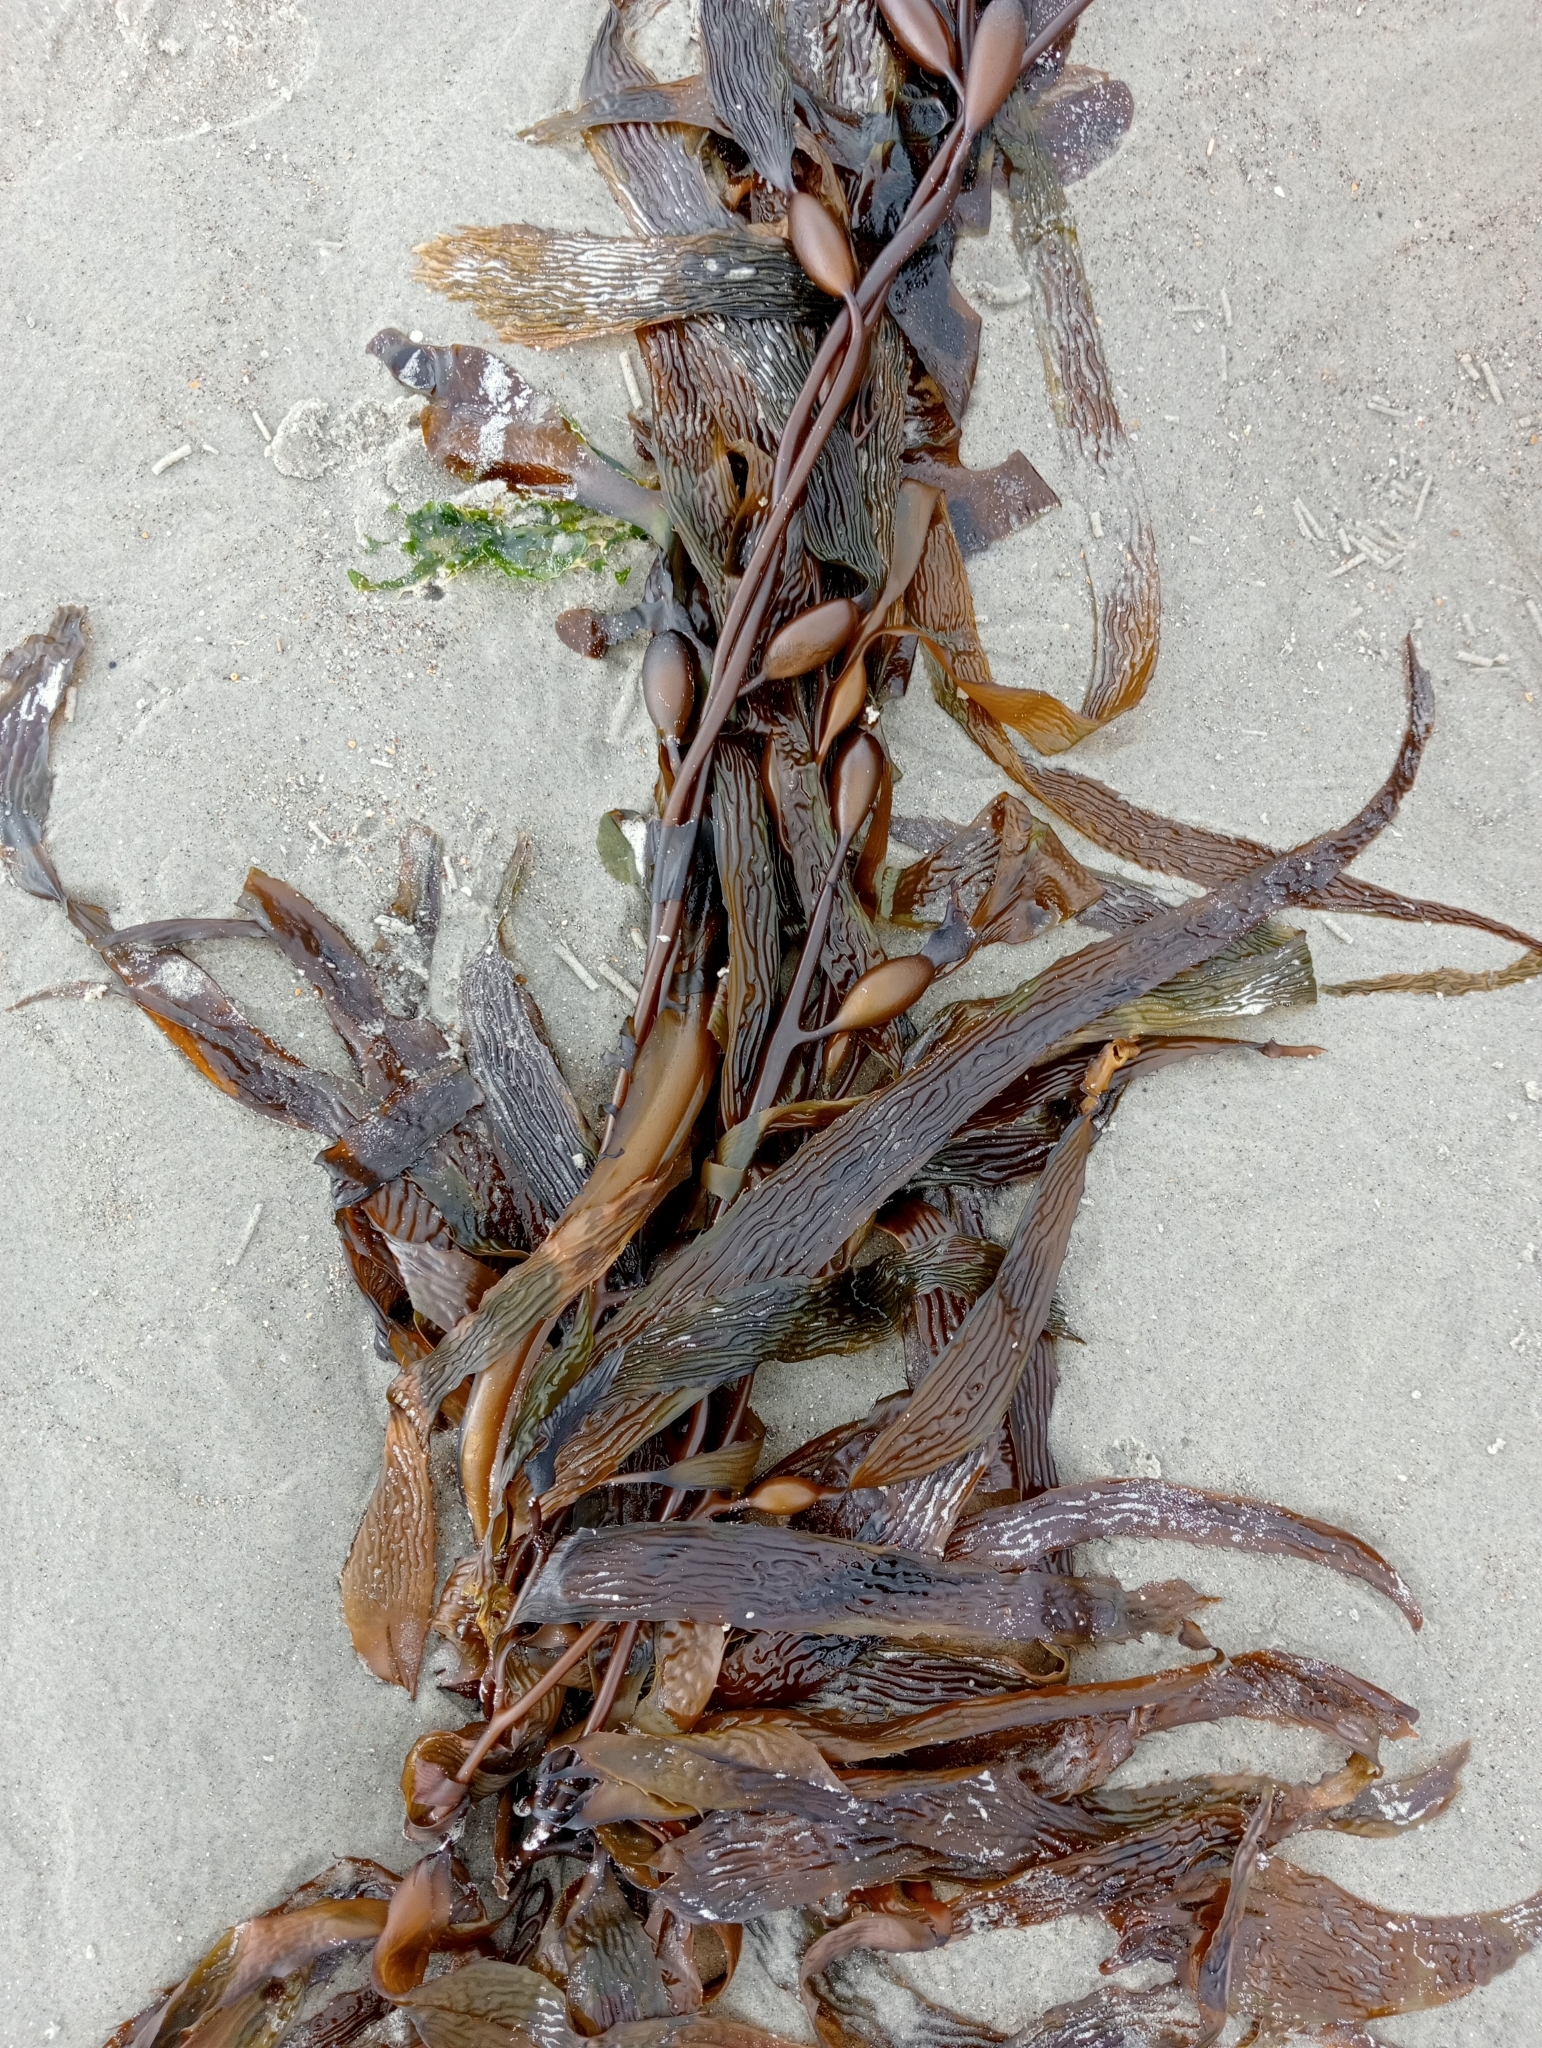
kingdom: Chromista
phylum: Ochrophyta
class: Phaeophyceae
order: Laminariales
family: Laminariaceae
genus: Macrocystis
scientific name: Macrocystis pyrifera
